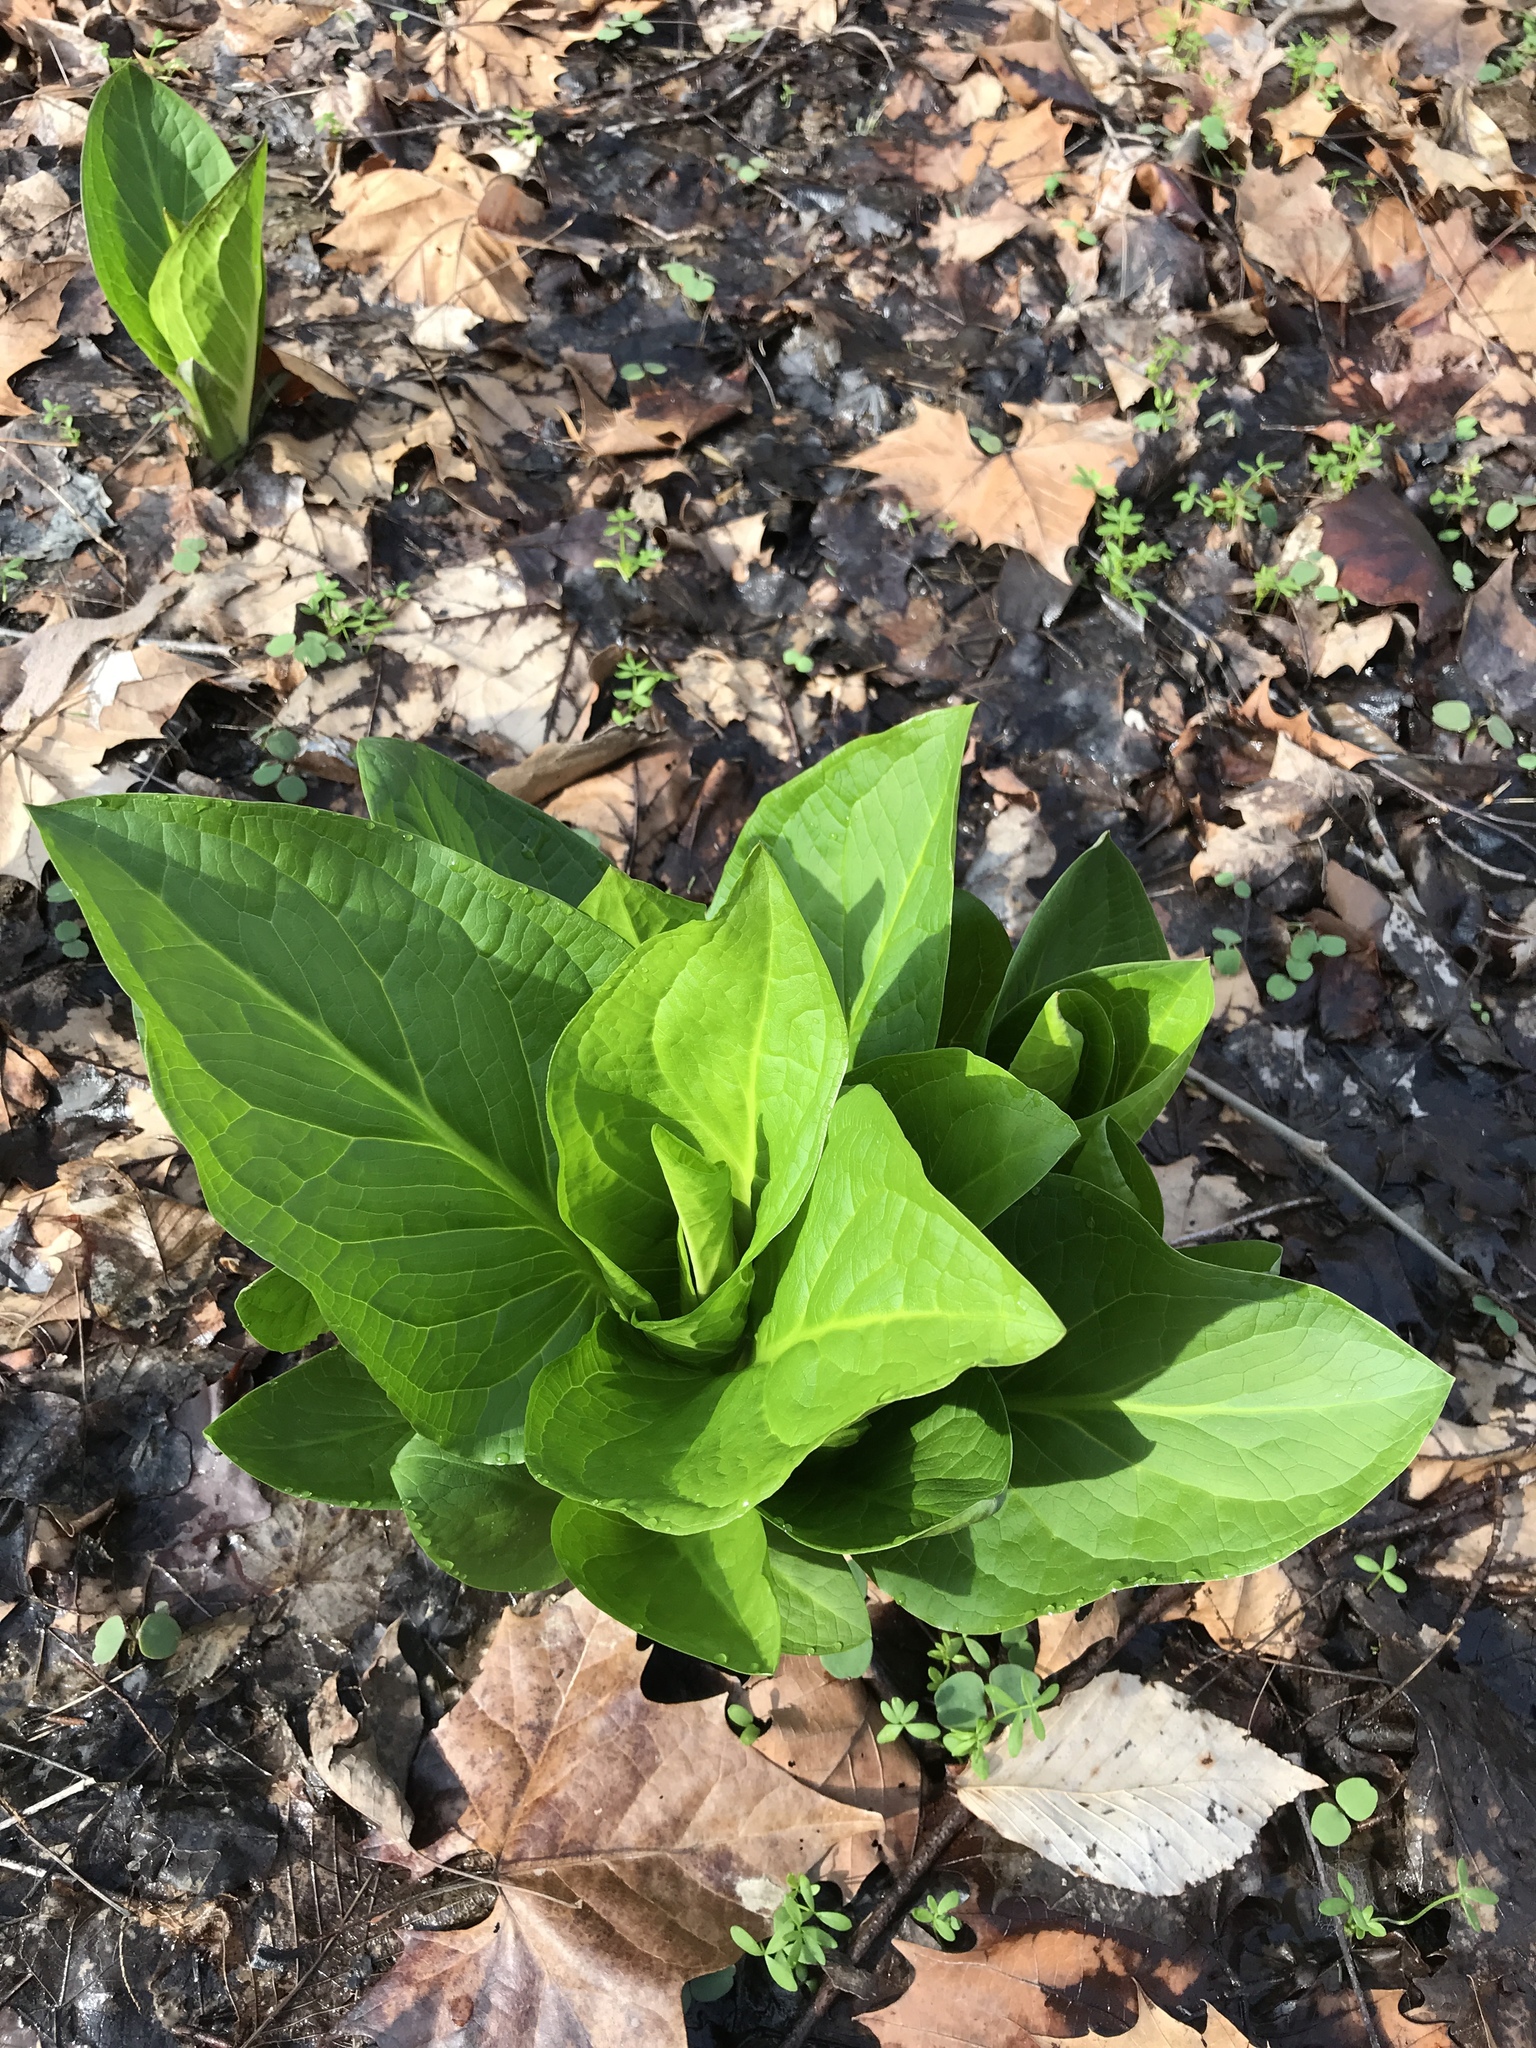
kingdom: Plantae
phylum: Tracheophyta
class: Liliopsida
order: Alismatales
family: Araceae
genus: Symplocarpus
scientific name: Symplocarpus foetidus
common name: Eastern skunk cabbage
